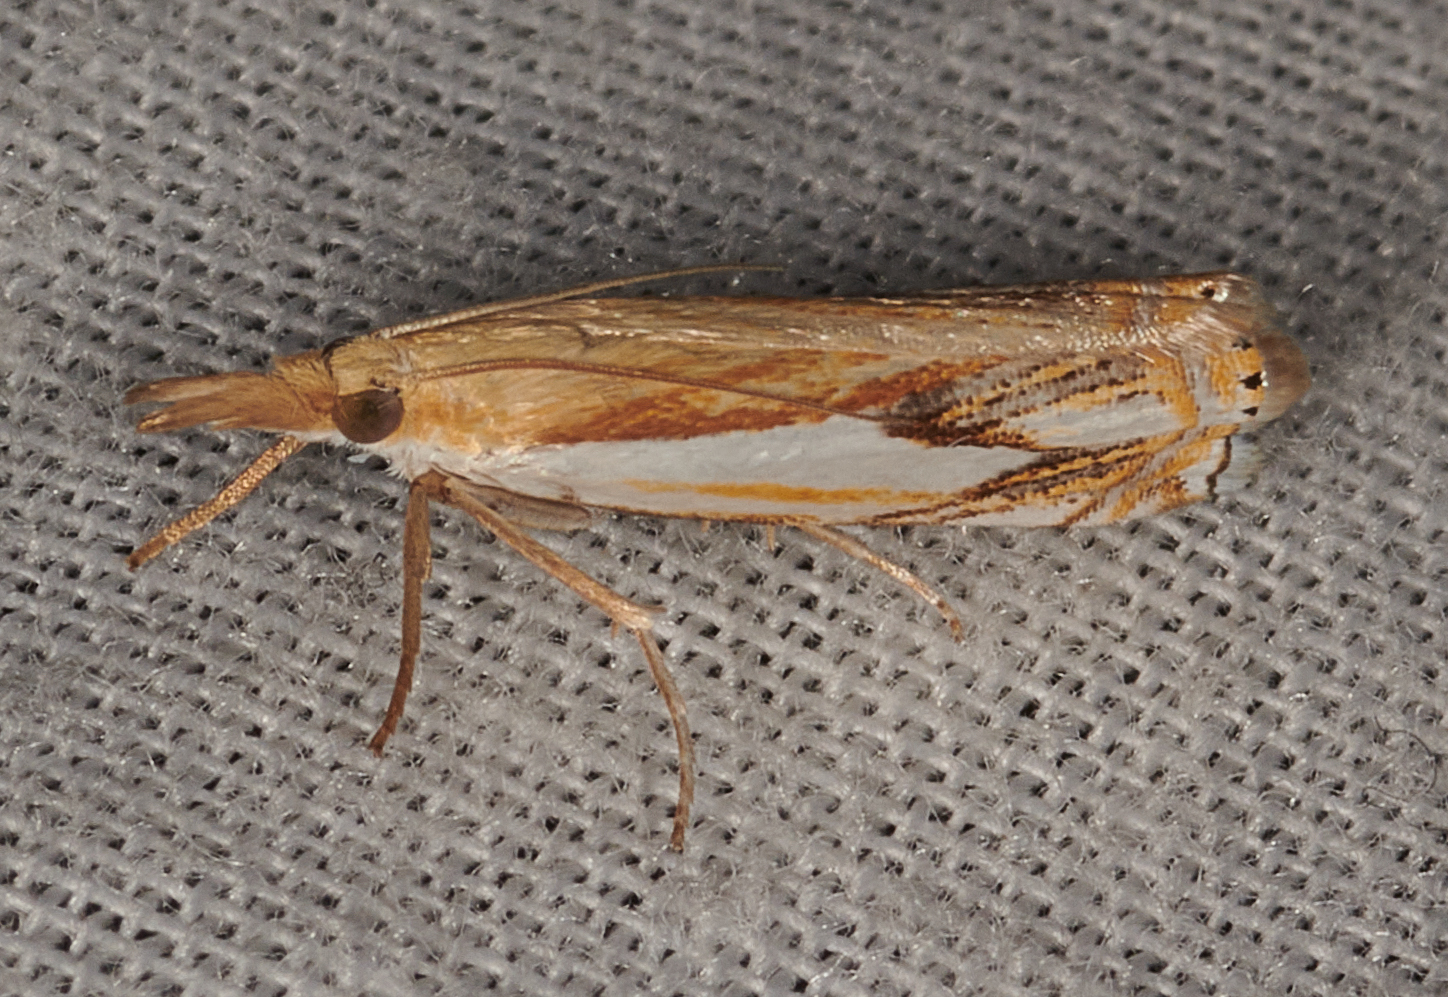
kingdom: Animalia
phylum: Arthropoda
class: Insecta
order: Lepidoptera
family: Crambidae
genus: Crambus
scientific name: Crambus agitatellus
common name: Double-banded grass-veneer
